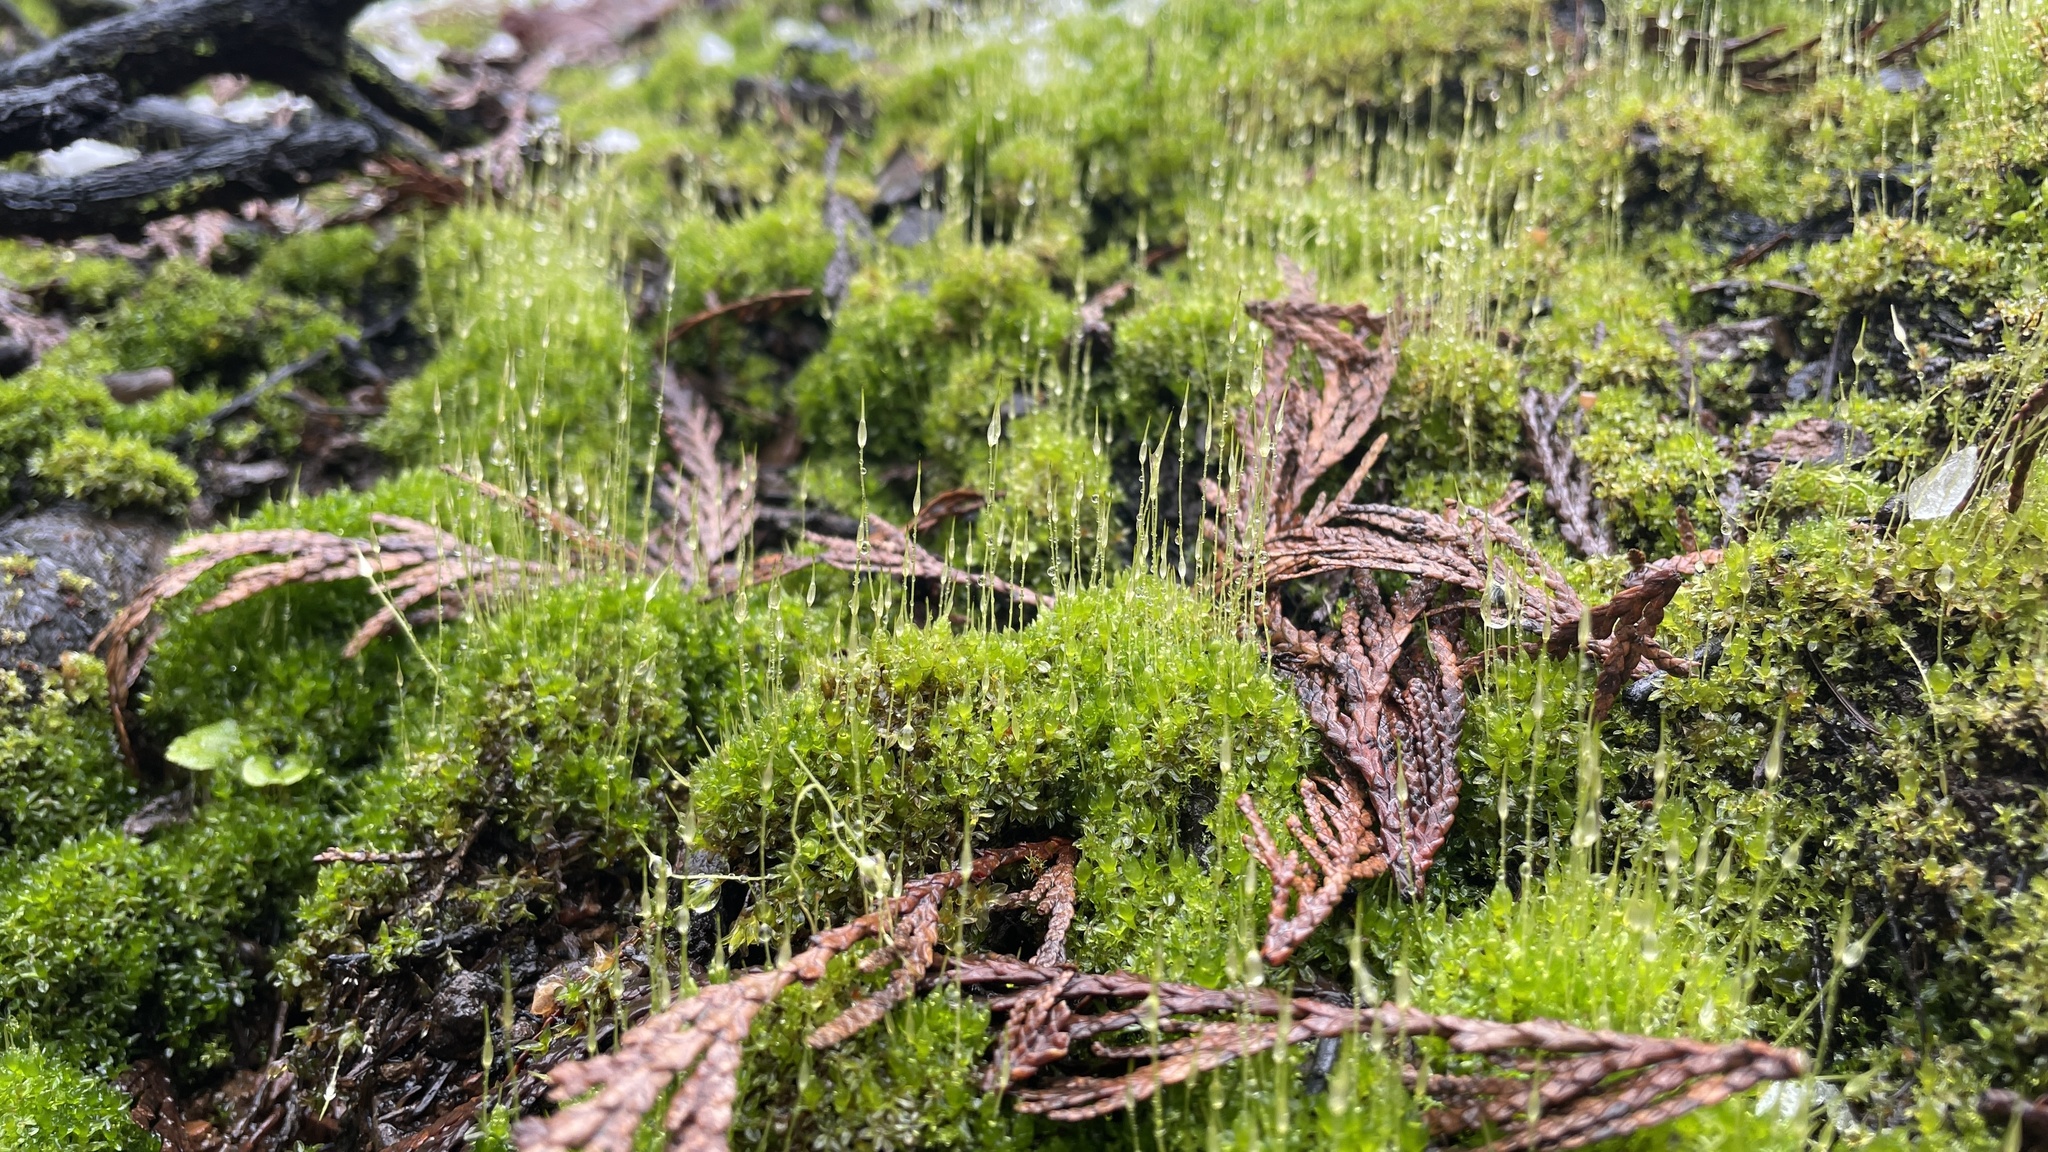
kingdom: Plantae
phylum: Bryophyta
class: Bryopsida
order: Funariales
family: Funariaceae
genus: Funaria
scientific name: Funaria hygrometrica
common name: Common cord moss
